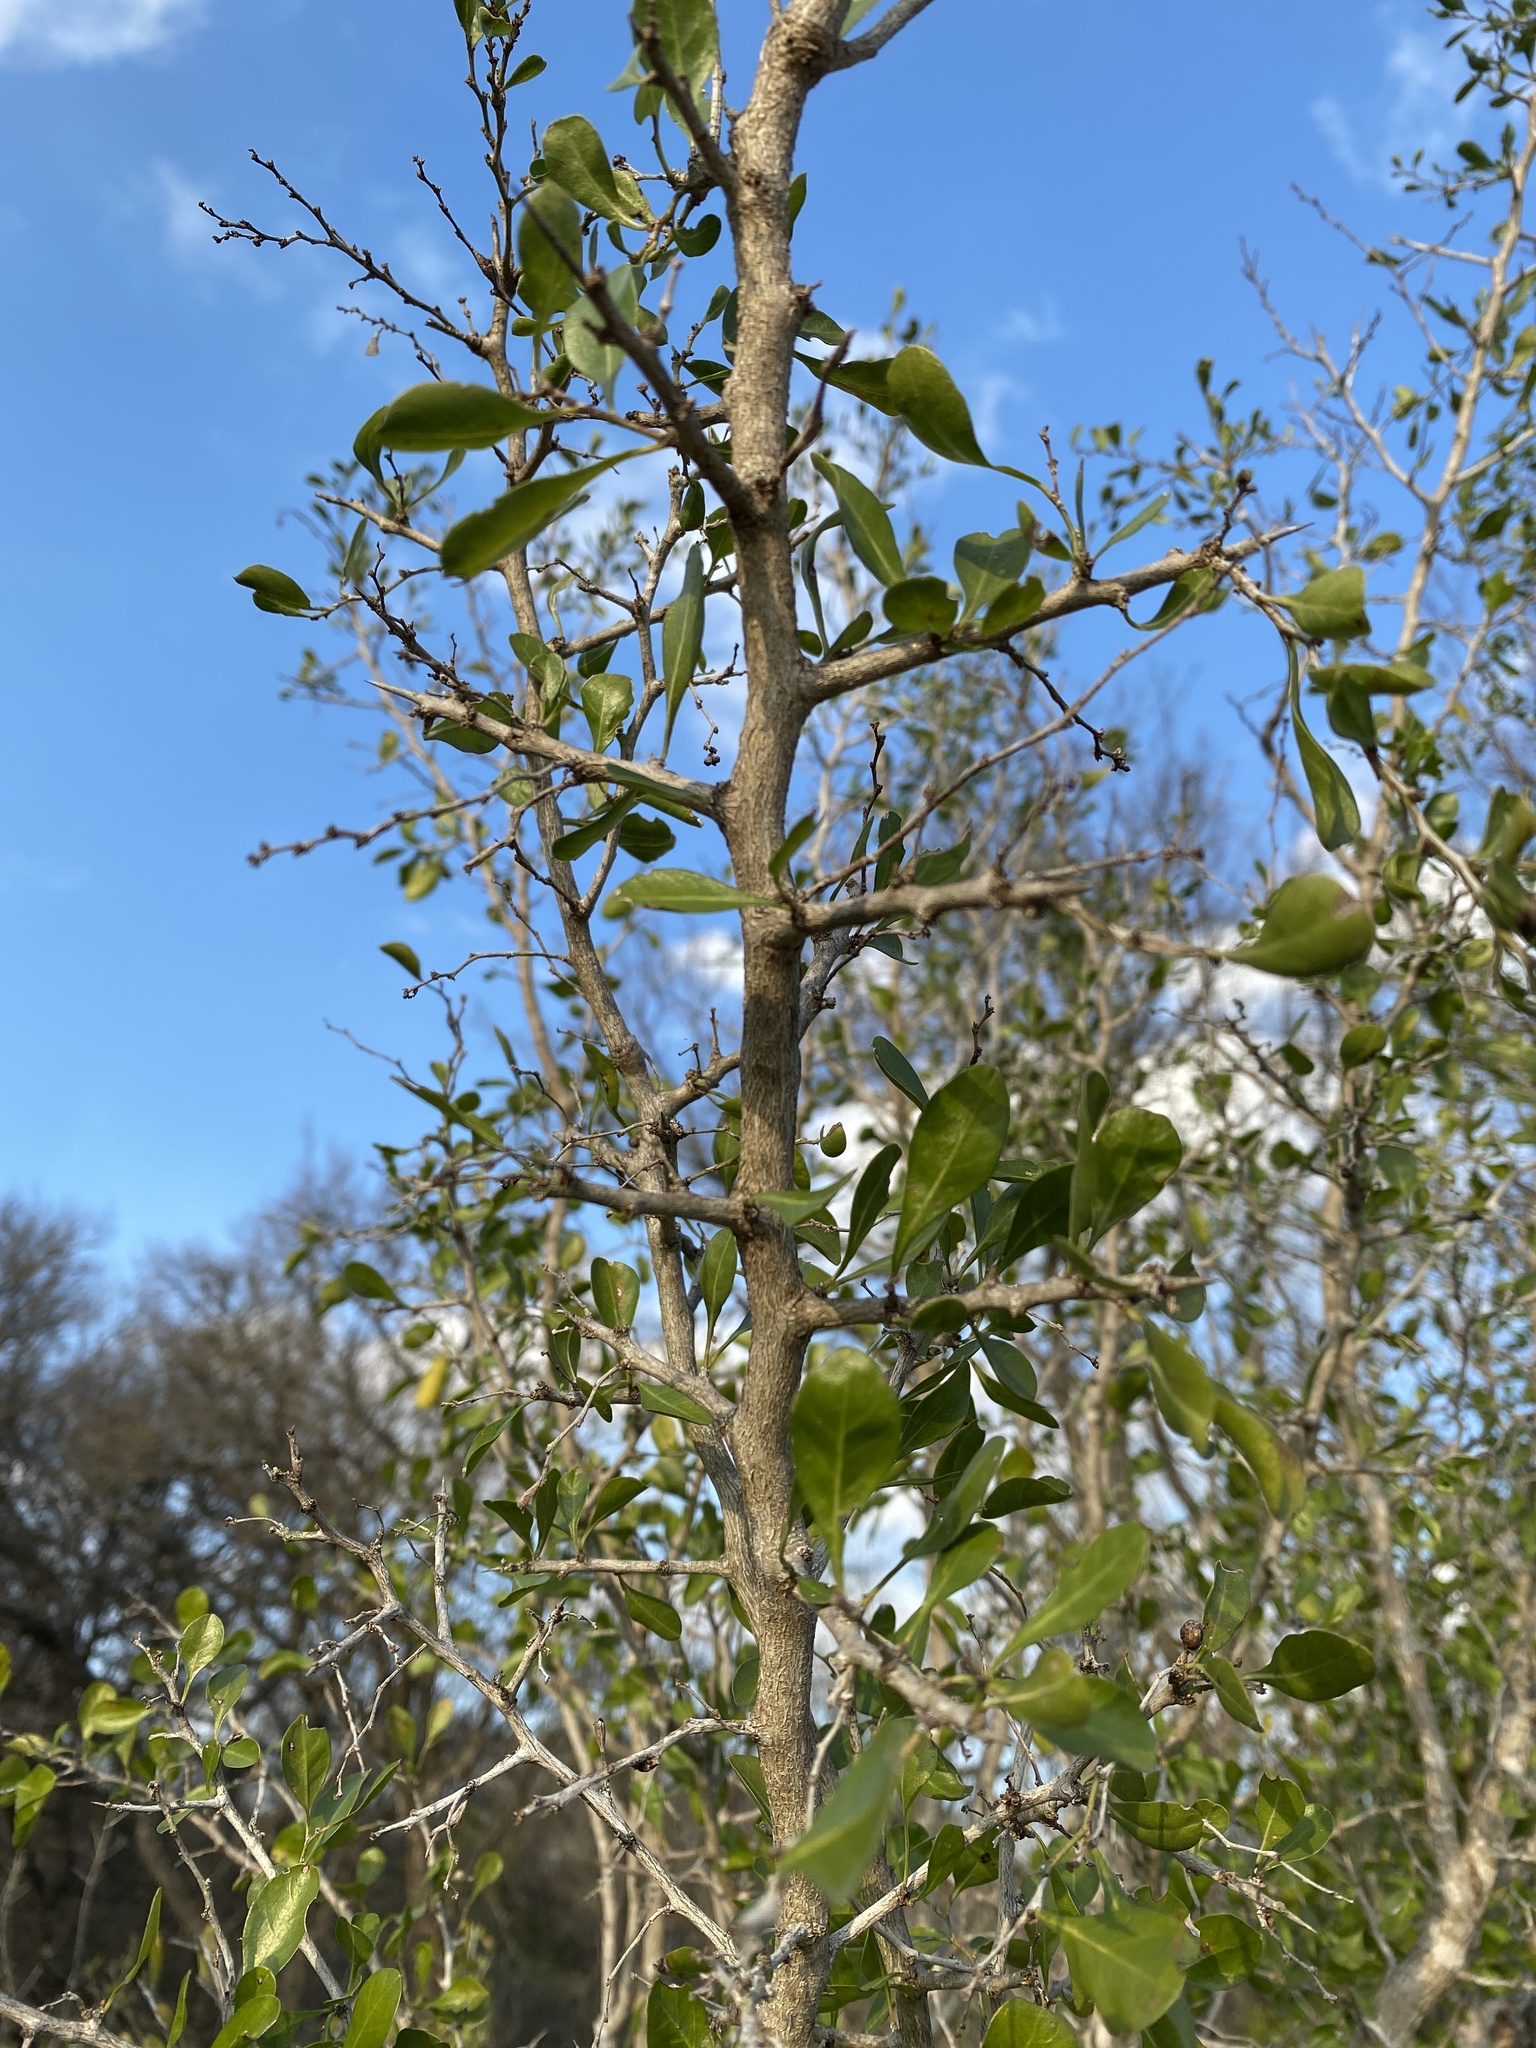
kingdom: Plantae
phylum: Tracheophyta
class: Magnoliopsida
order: Rosales
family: Rhamnaceae
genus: Condalia
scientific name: Condalia hookeri
